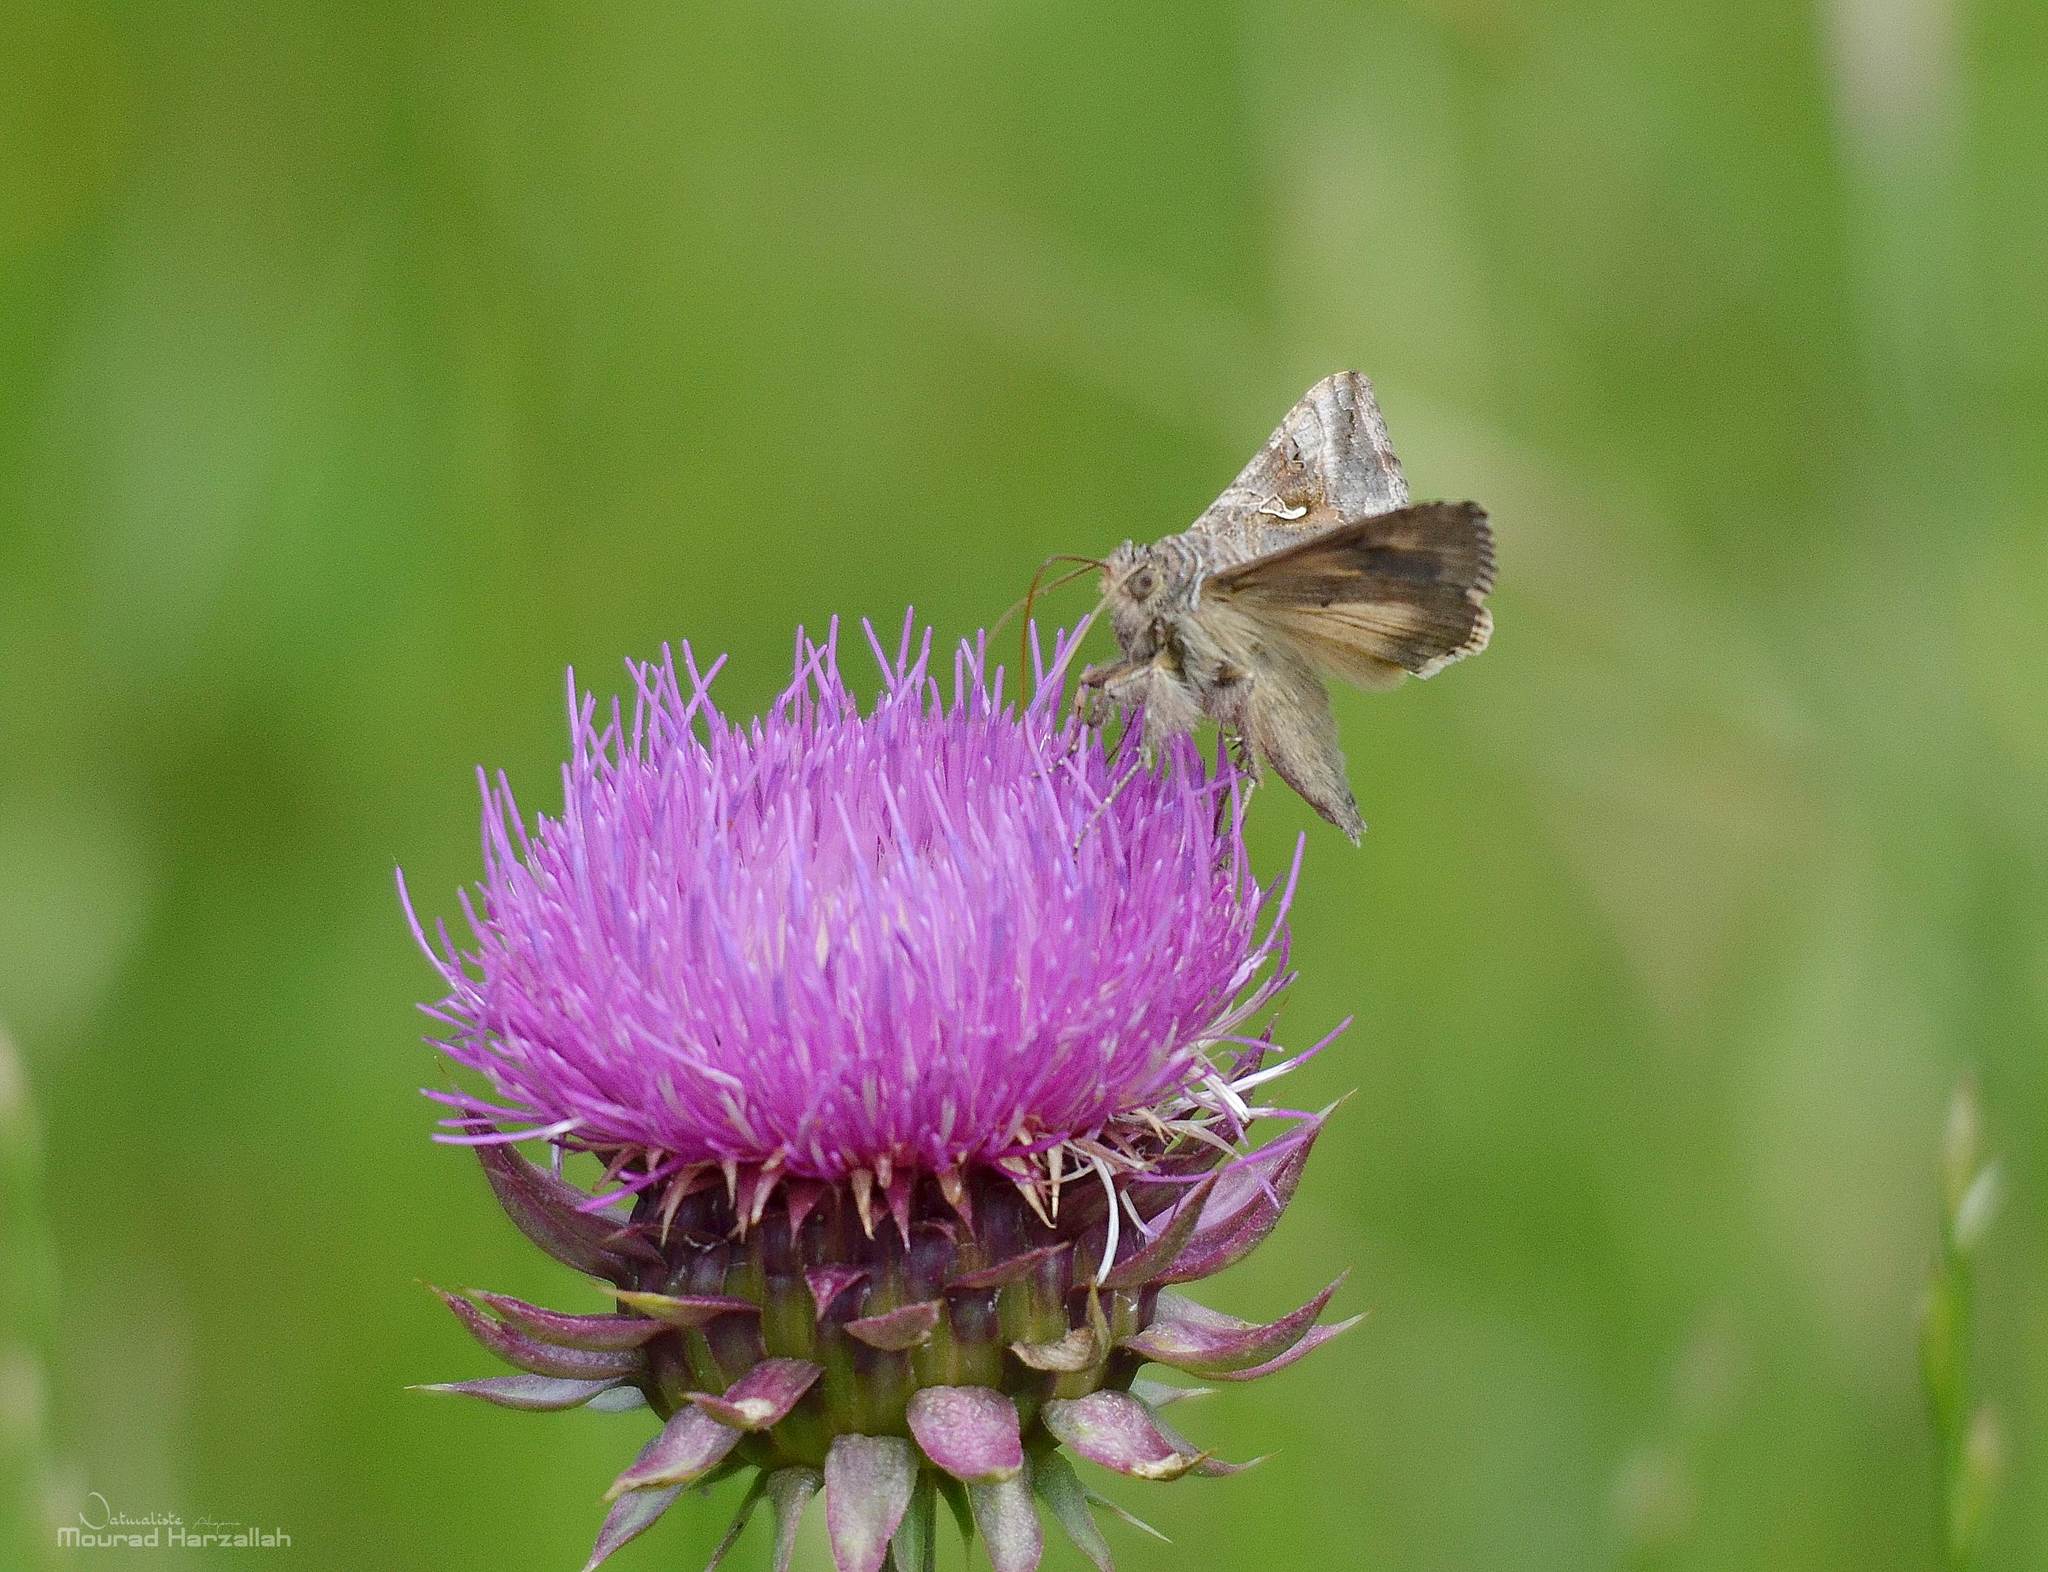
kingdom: Animalia
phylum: Arthropoda
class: Insecta
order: Lepidoptera
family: Noctuidae
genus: Autographa
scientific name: Autographa gamma
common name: Silver y
